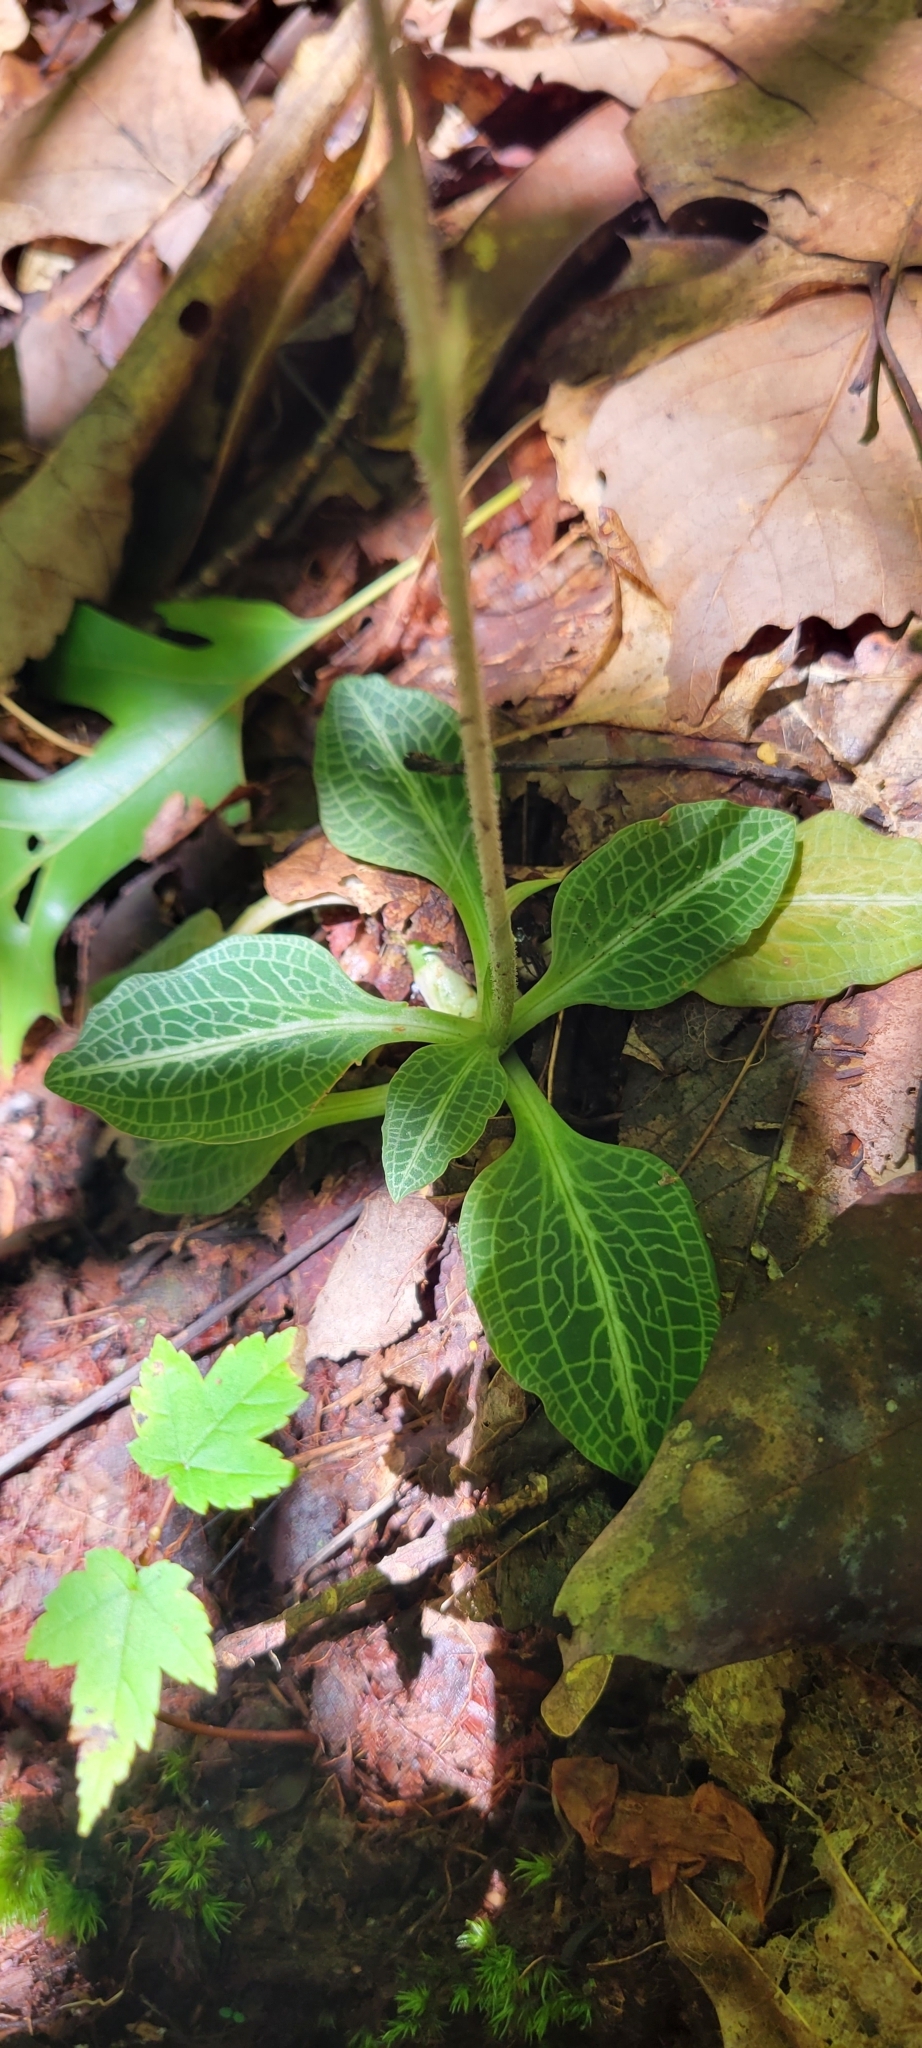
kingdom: Plantae
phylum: Tracheophyta
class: Liliopsida
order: Asparagales
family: Orchidaceae
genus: Goodyera
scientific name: Goodyera pubescens
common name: Downy rattlesnake-plantain
